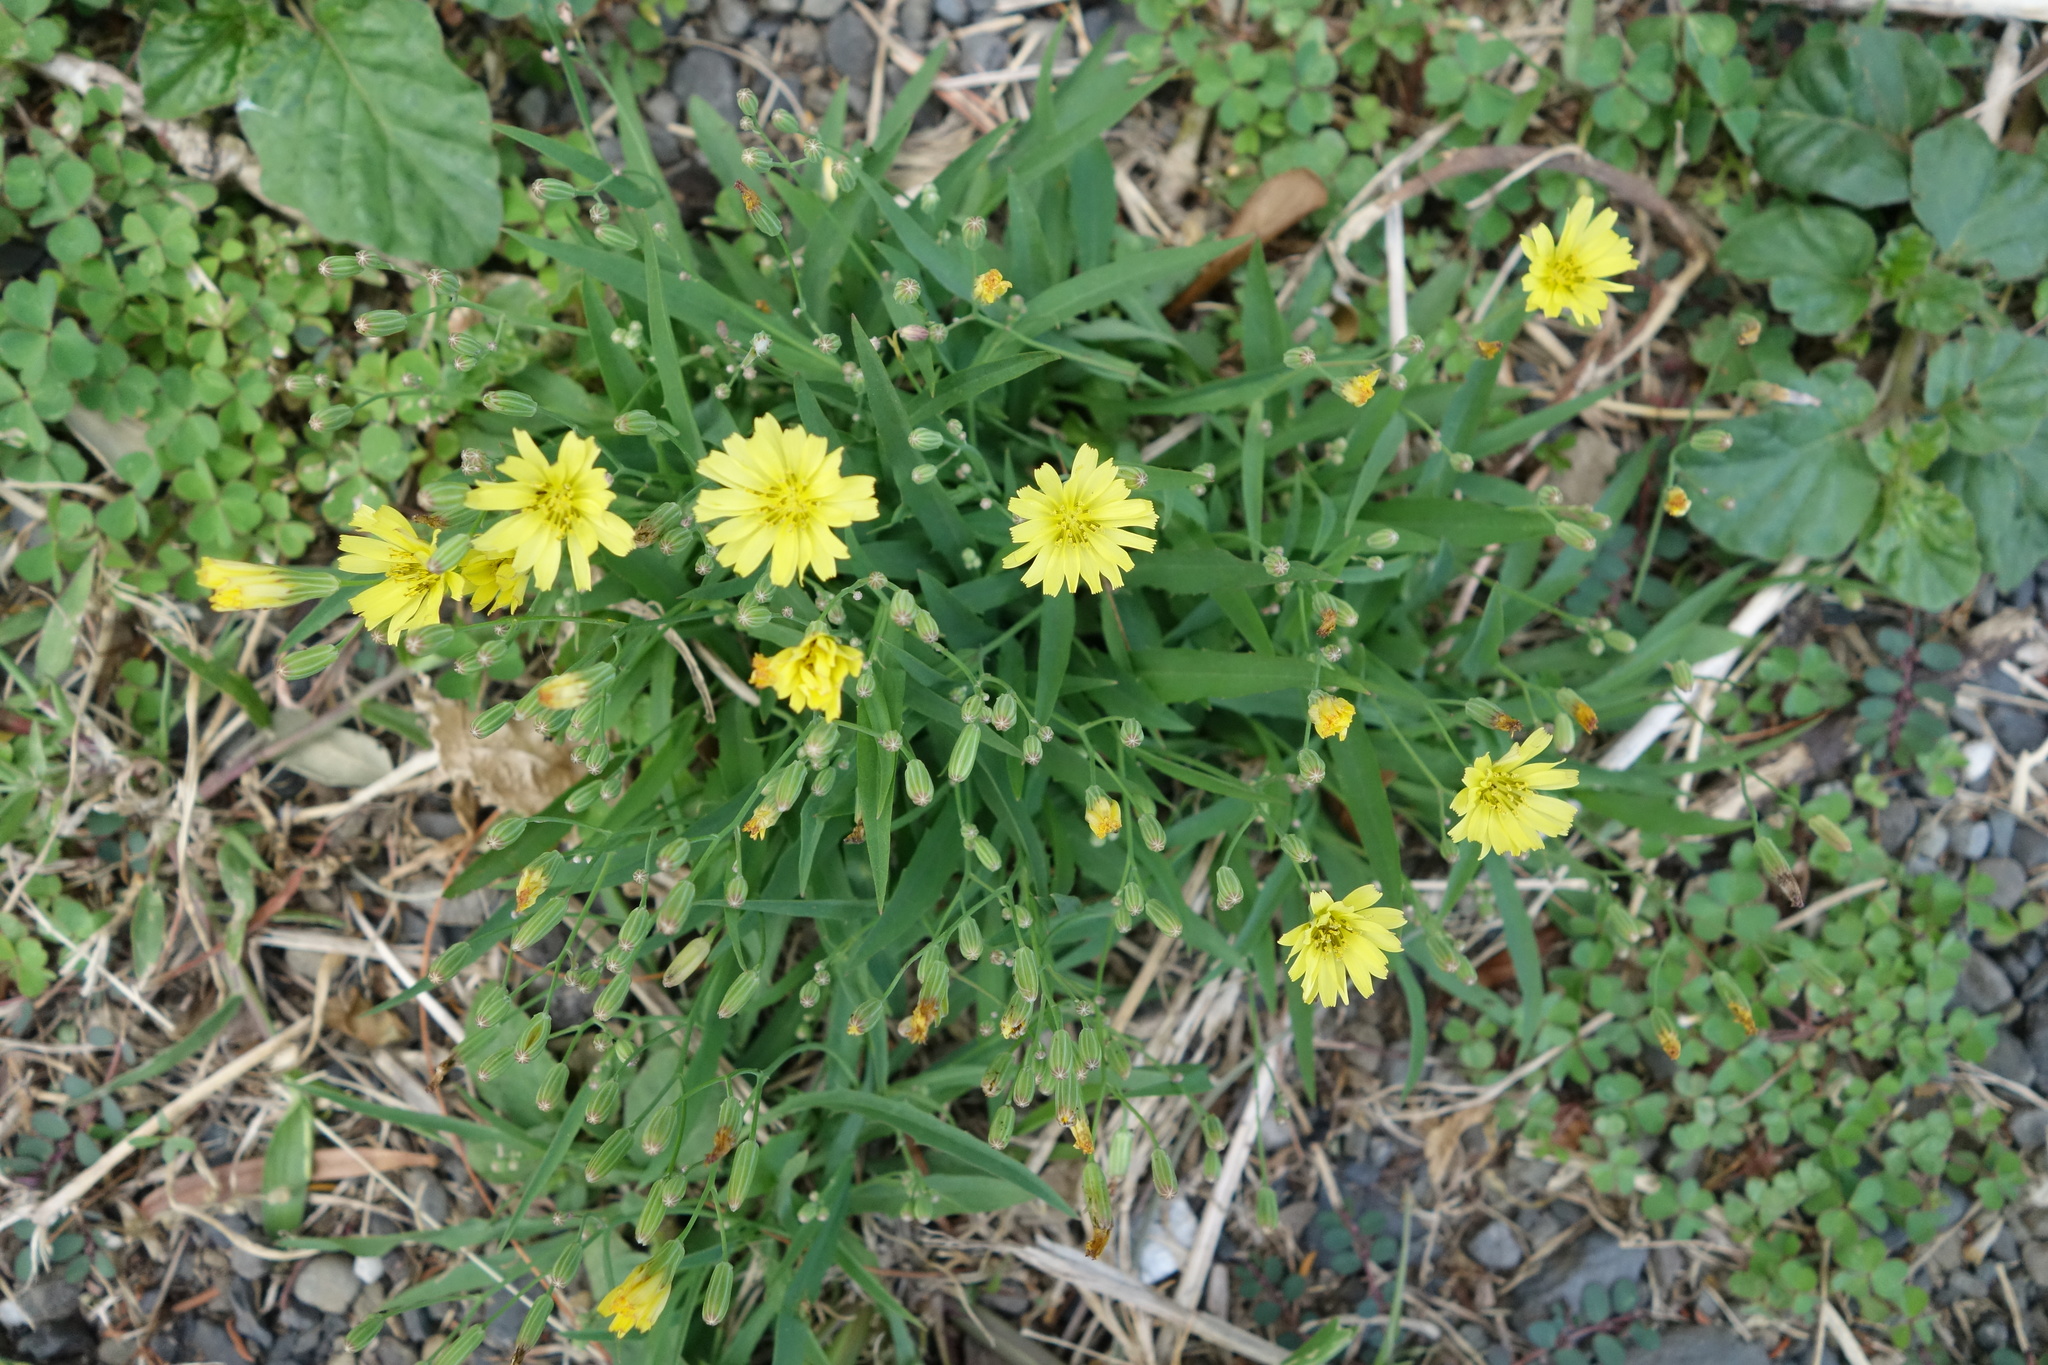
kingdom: Plantae
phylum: Tracheophyta
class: Magnoliopsida
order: Asterales
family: Asteraceae
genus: Ixeris
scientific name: Ixeris chinensis
